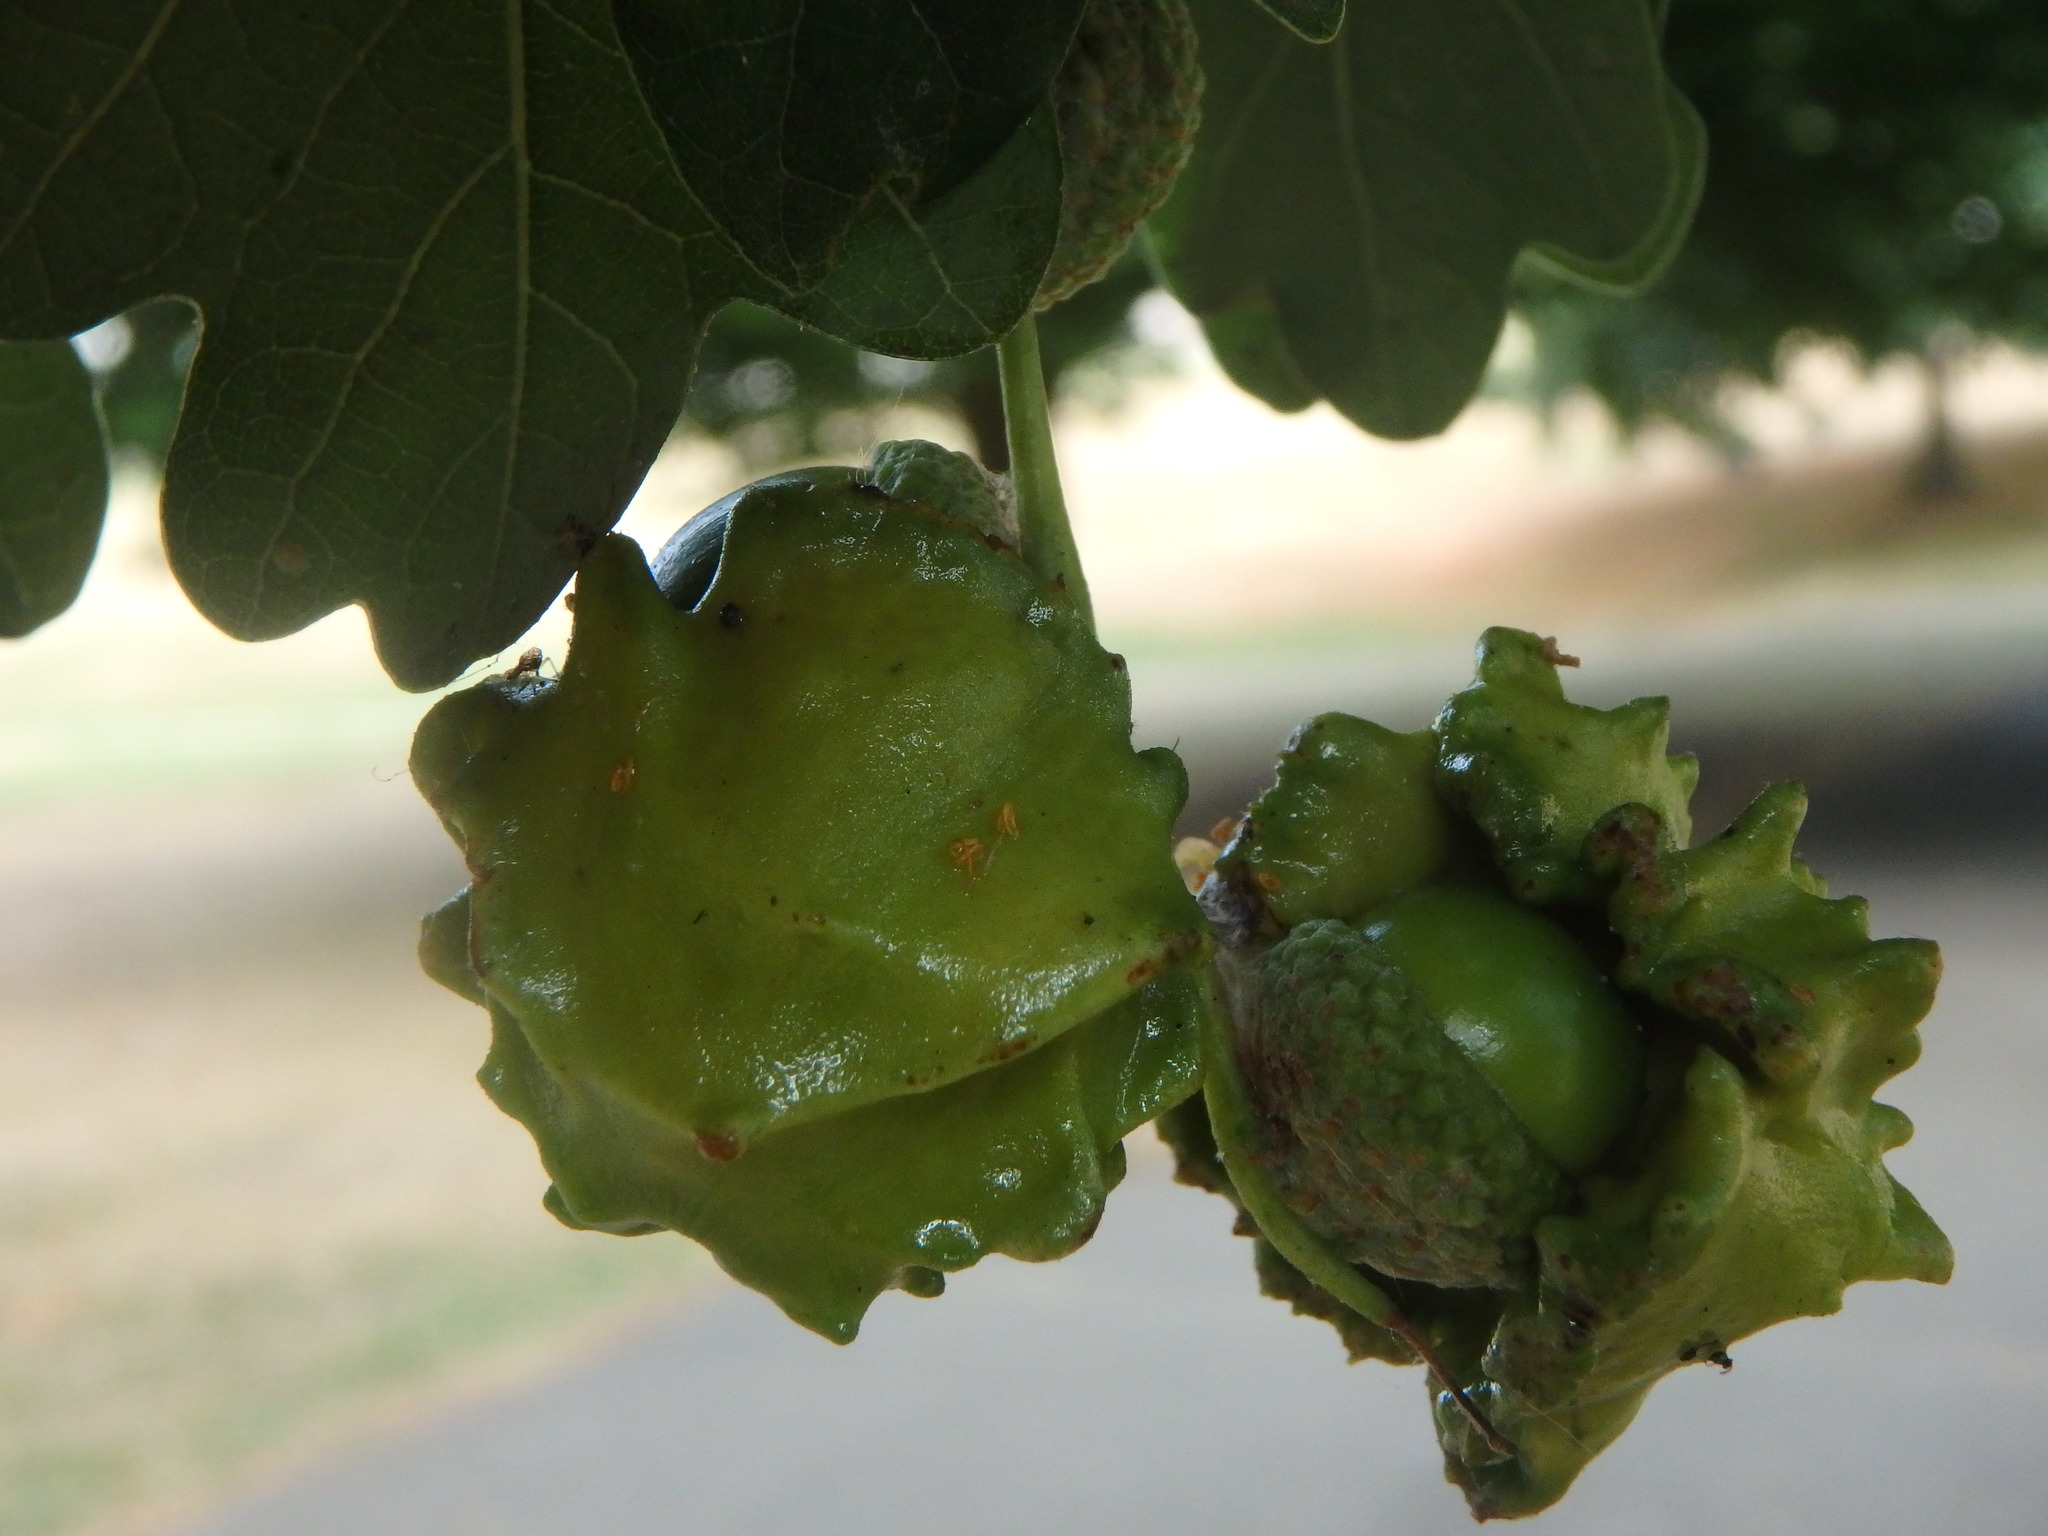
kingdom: Animalia
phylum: Arthropoda
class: Insecta
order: Hymenoptera
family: Cynipidae
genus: Andricus
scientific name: Andricus quercuscalicis
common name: Knopper gall
